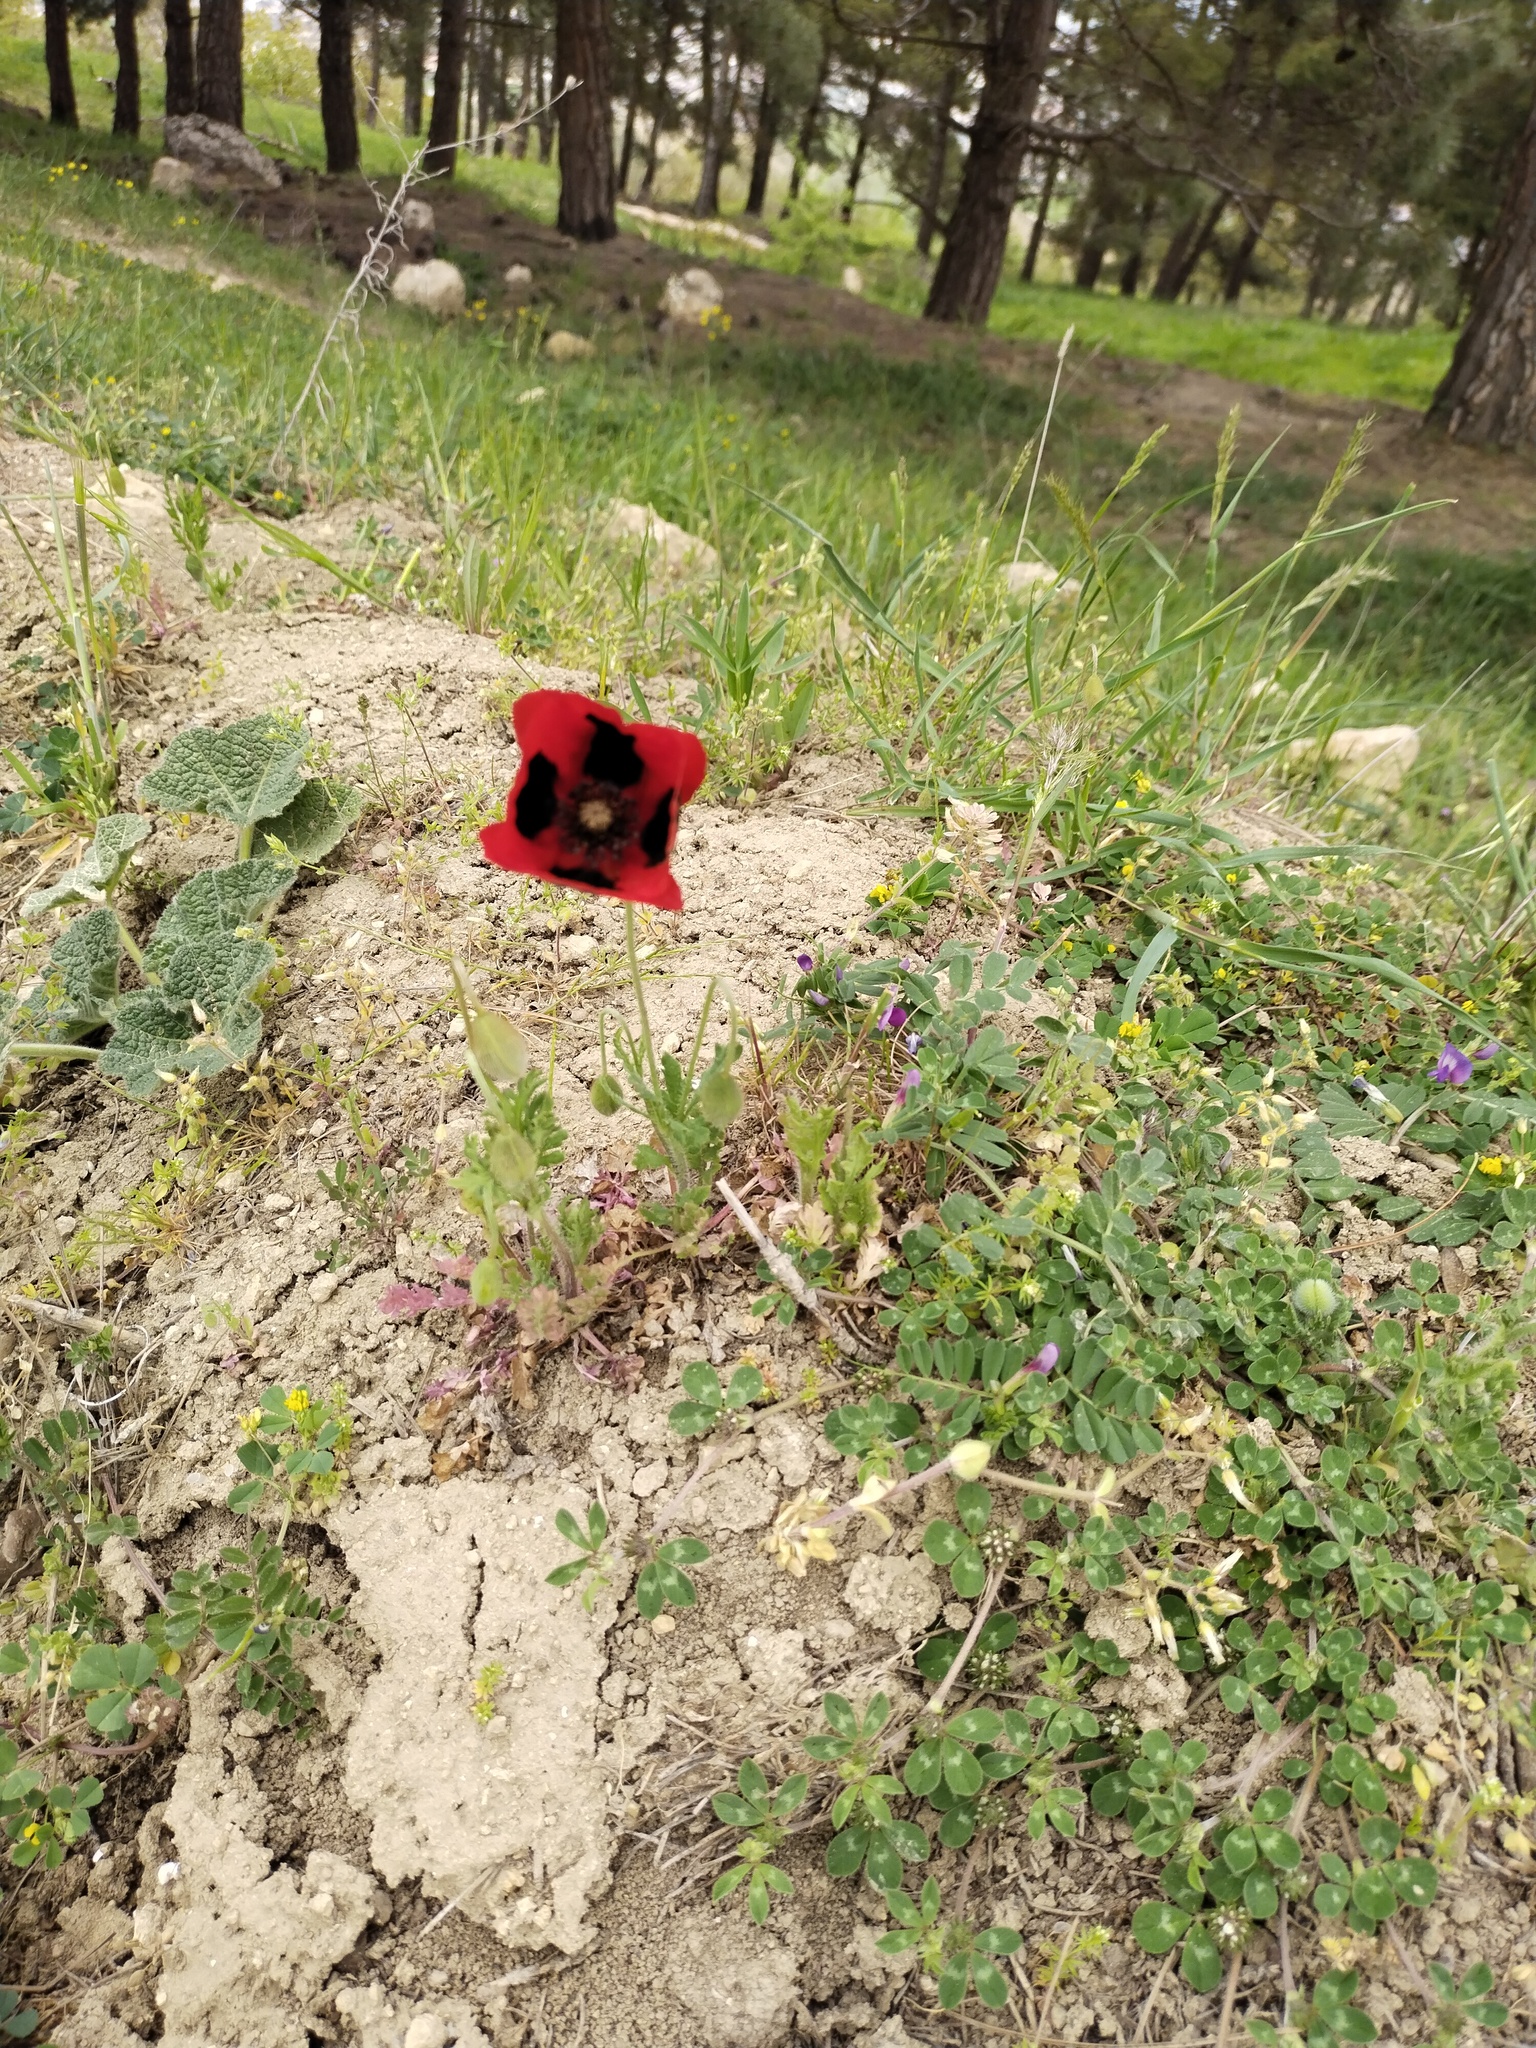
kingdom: Plantae
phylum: Tracheophyta
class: Magnoliopsida
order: Ranunculales
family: Papaveraceae
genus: Glaucium
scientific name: Glaucium corniculatum
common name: Red horned-poppy
